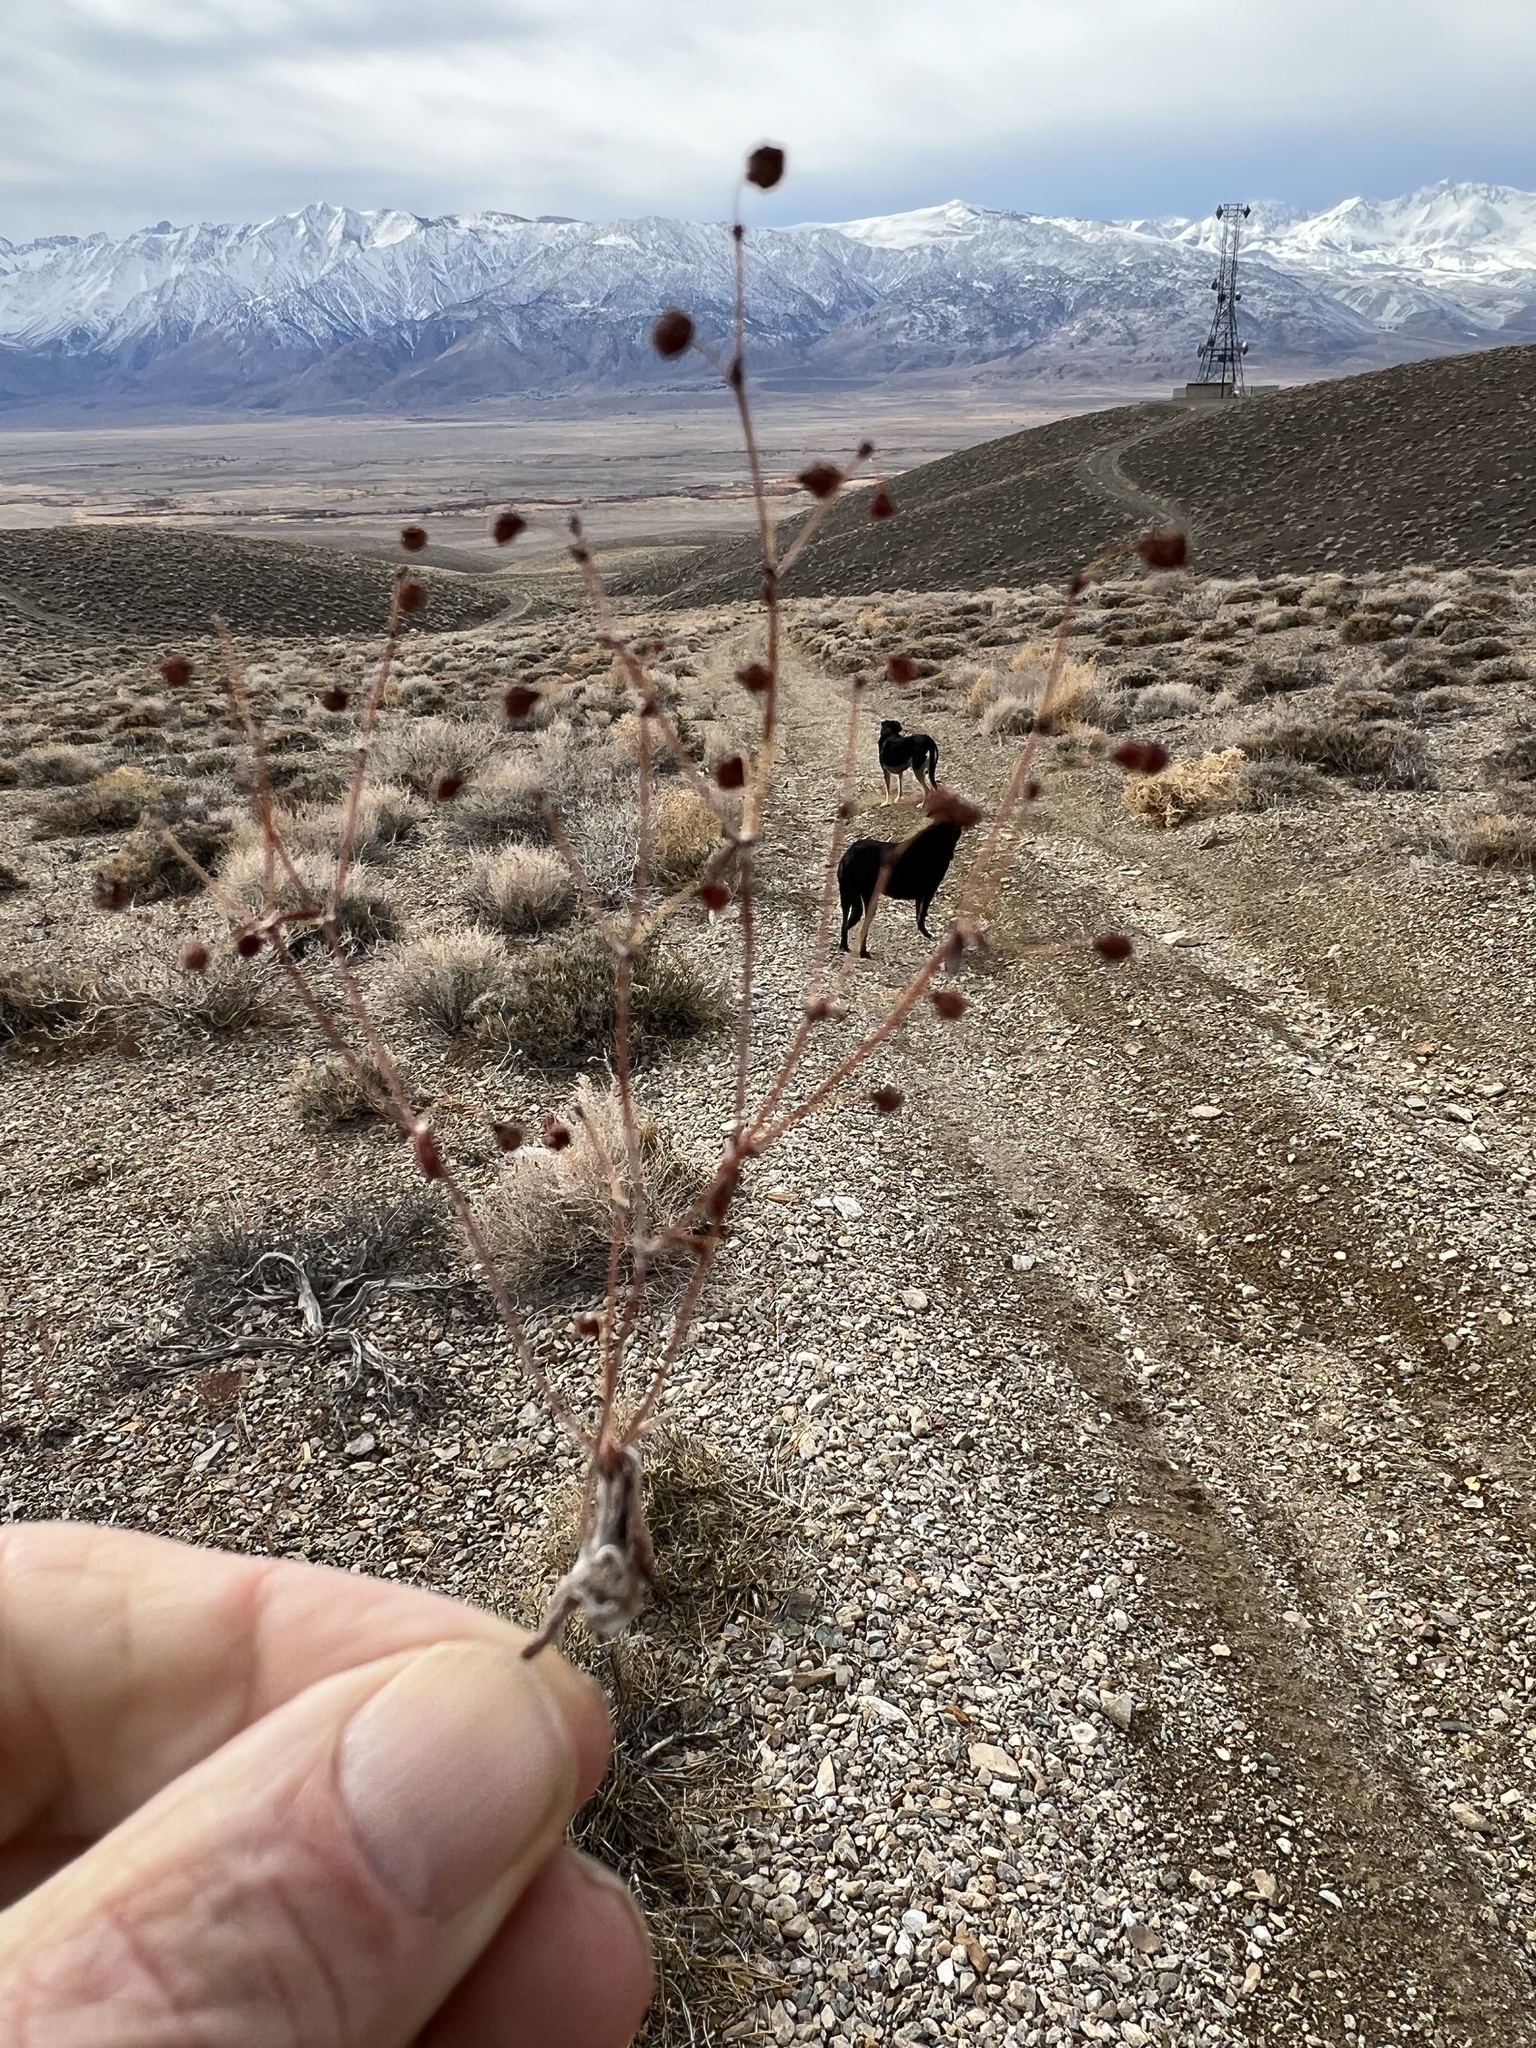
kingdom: Plantae
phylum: Tracheophyta
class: Magnoliopsida
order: Caryophyllales
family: Polygonaceae
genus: Eriogonum
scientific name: Eriogonum maculatum
